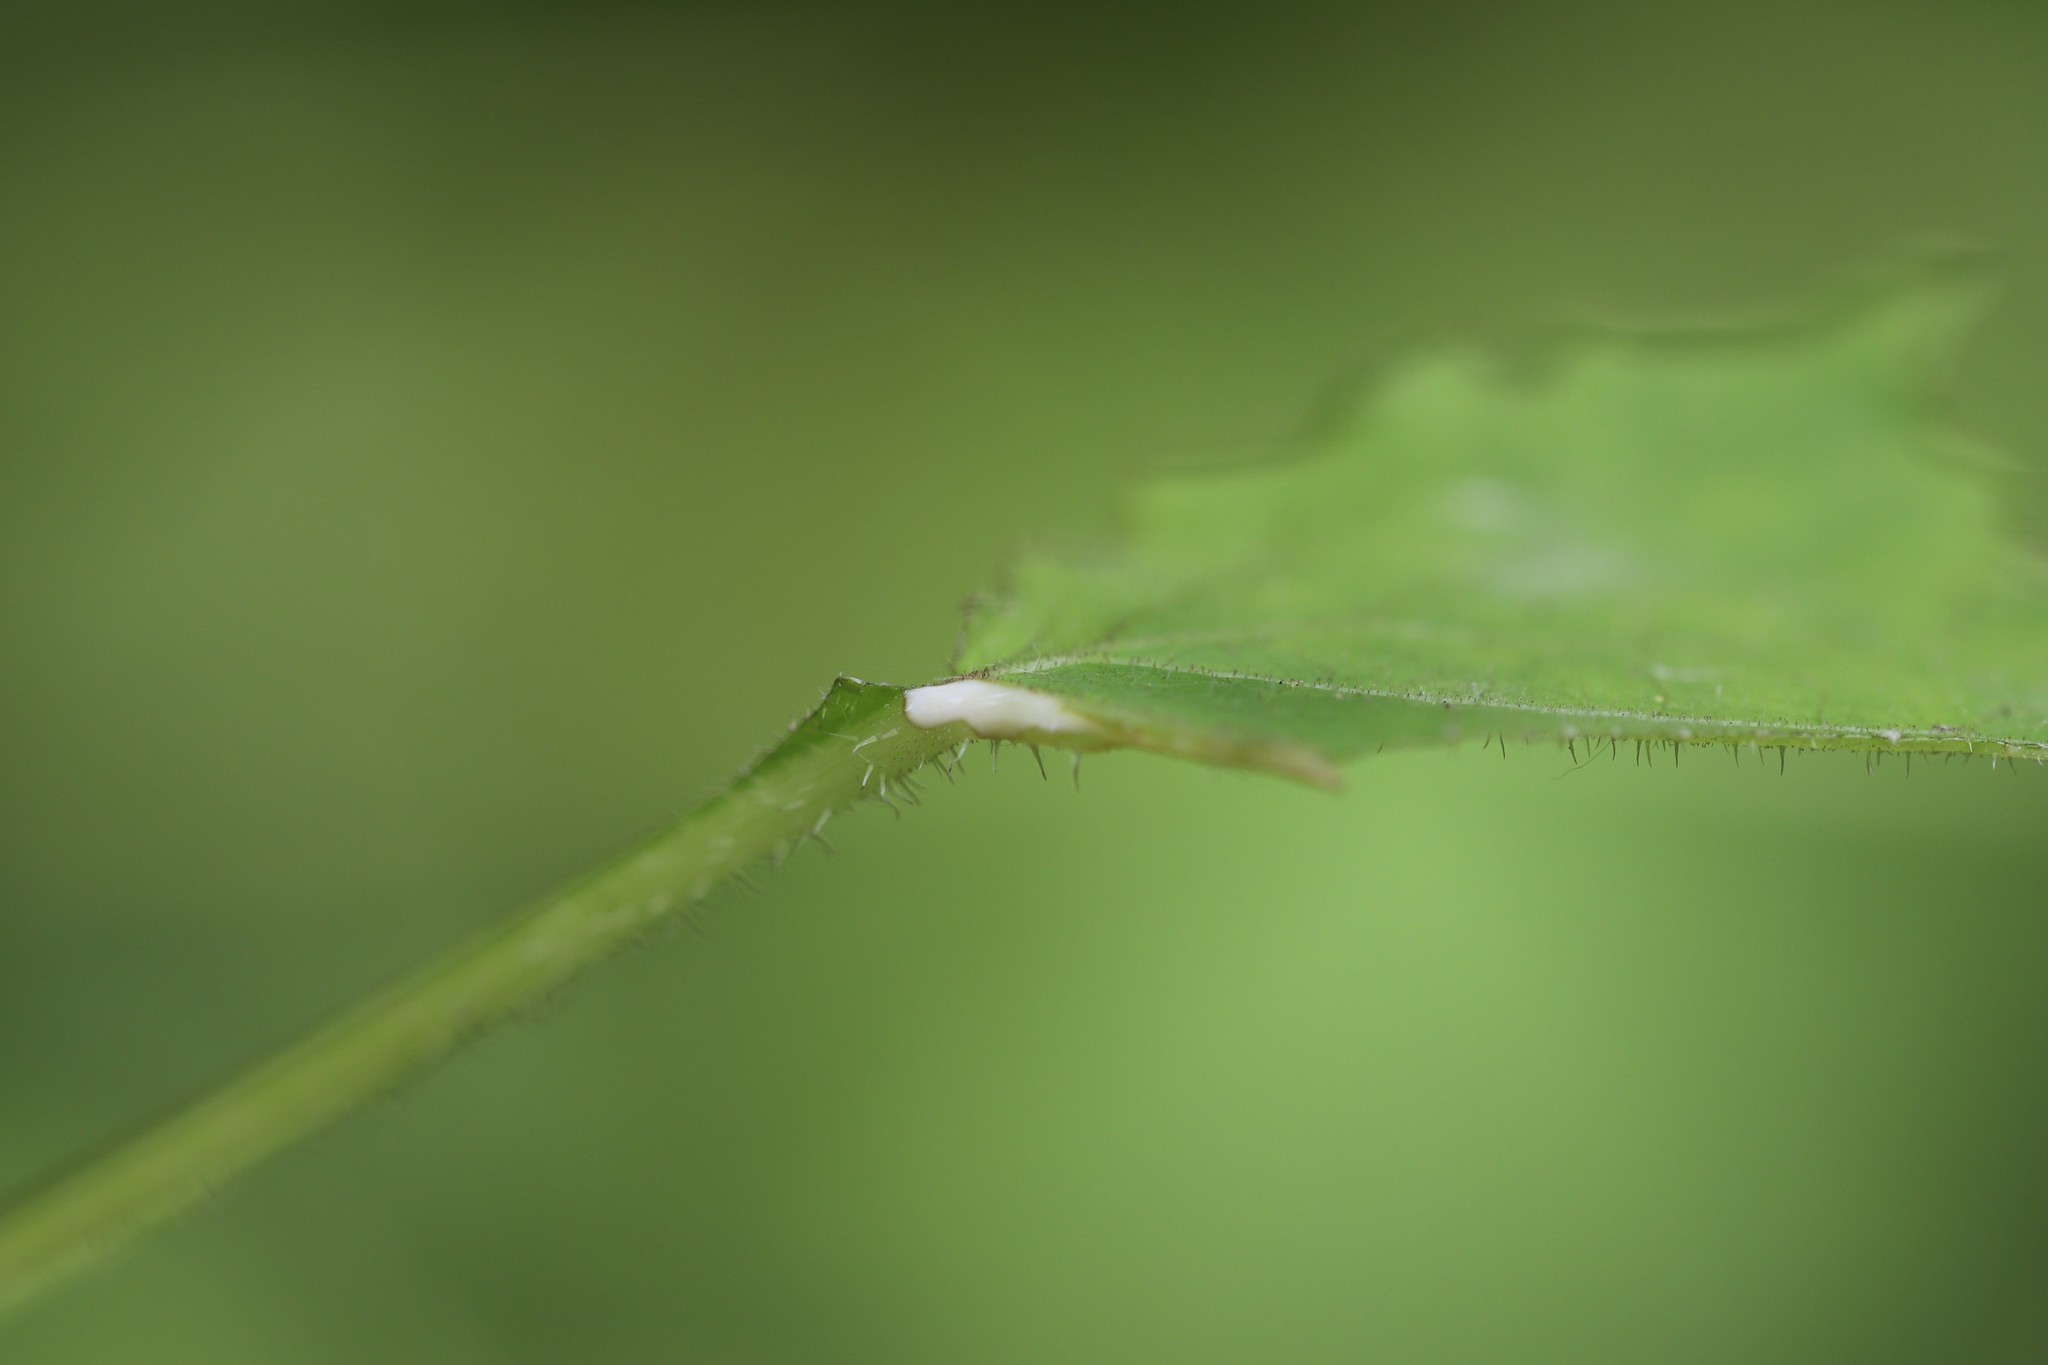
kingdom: Plantae
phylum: Tracheophyta
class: Magnoliopsida
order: Asterales
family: Asteraceae
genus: Nabalus
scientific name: Nabalus tatarinowii
